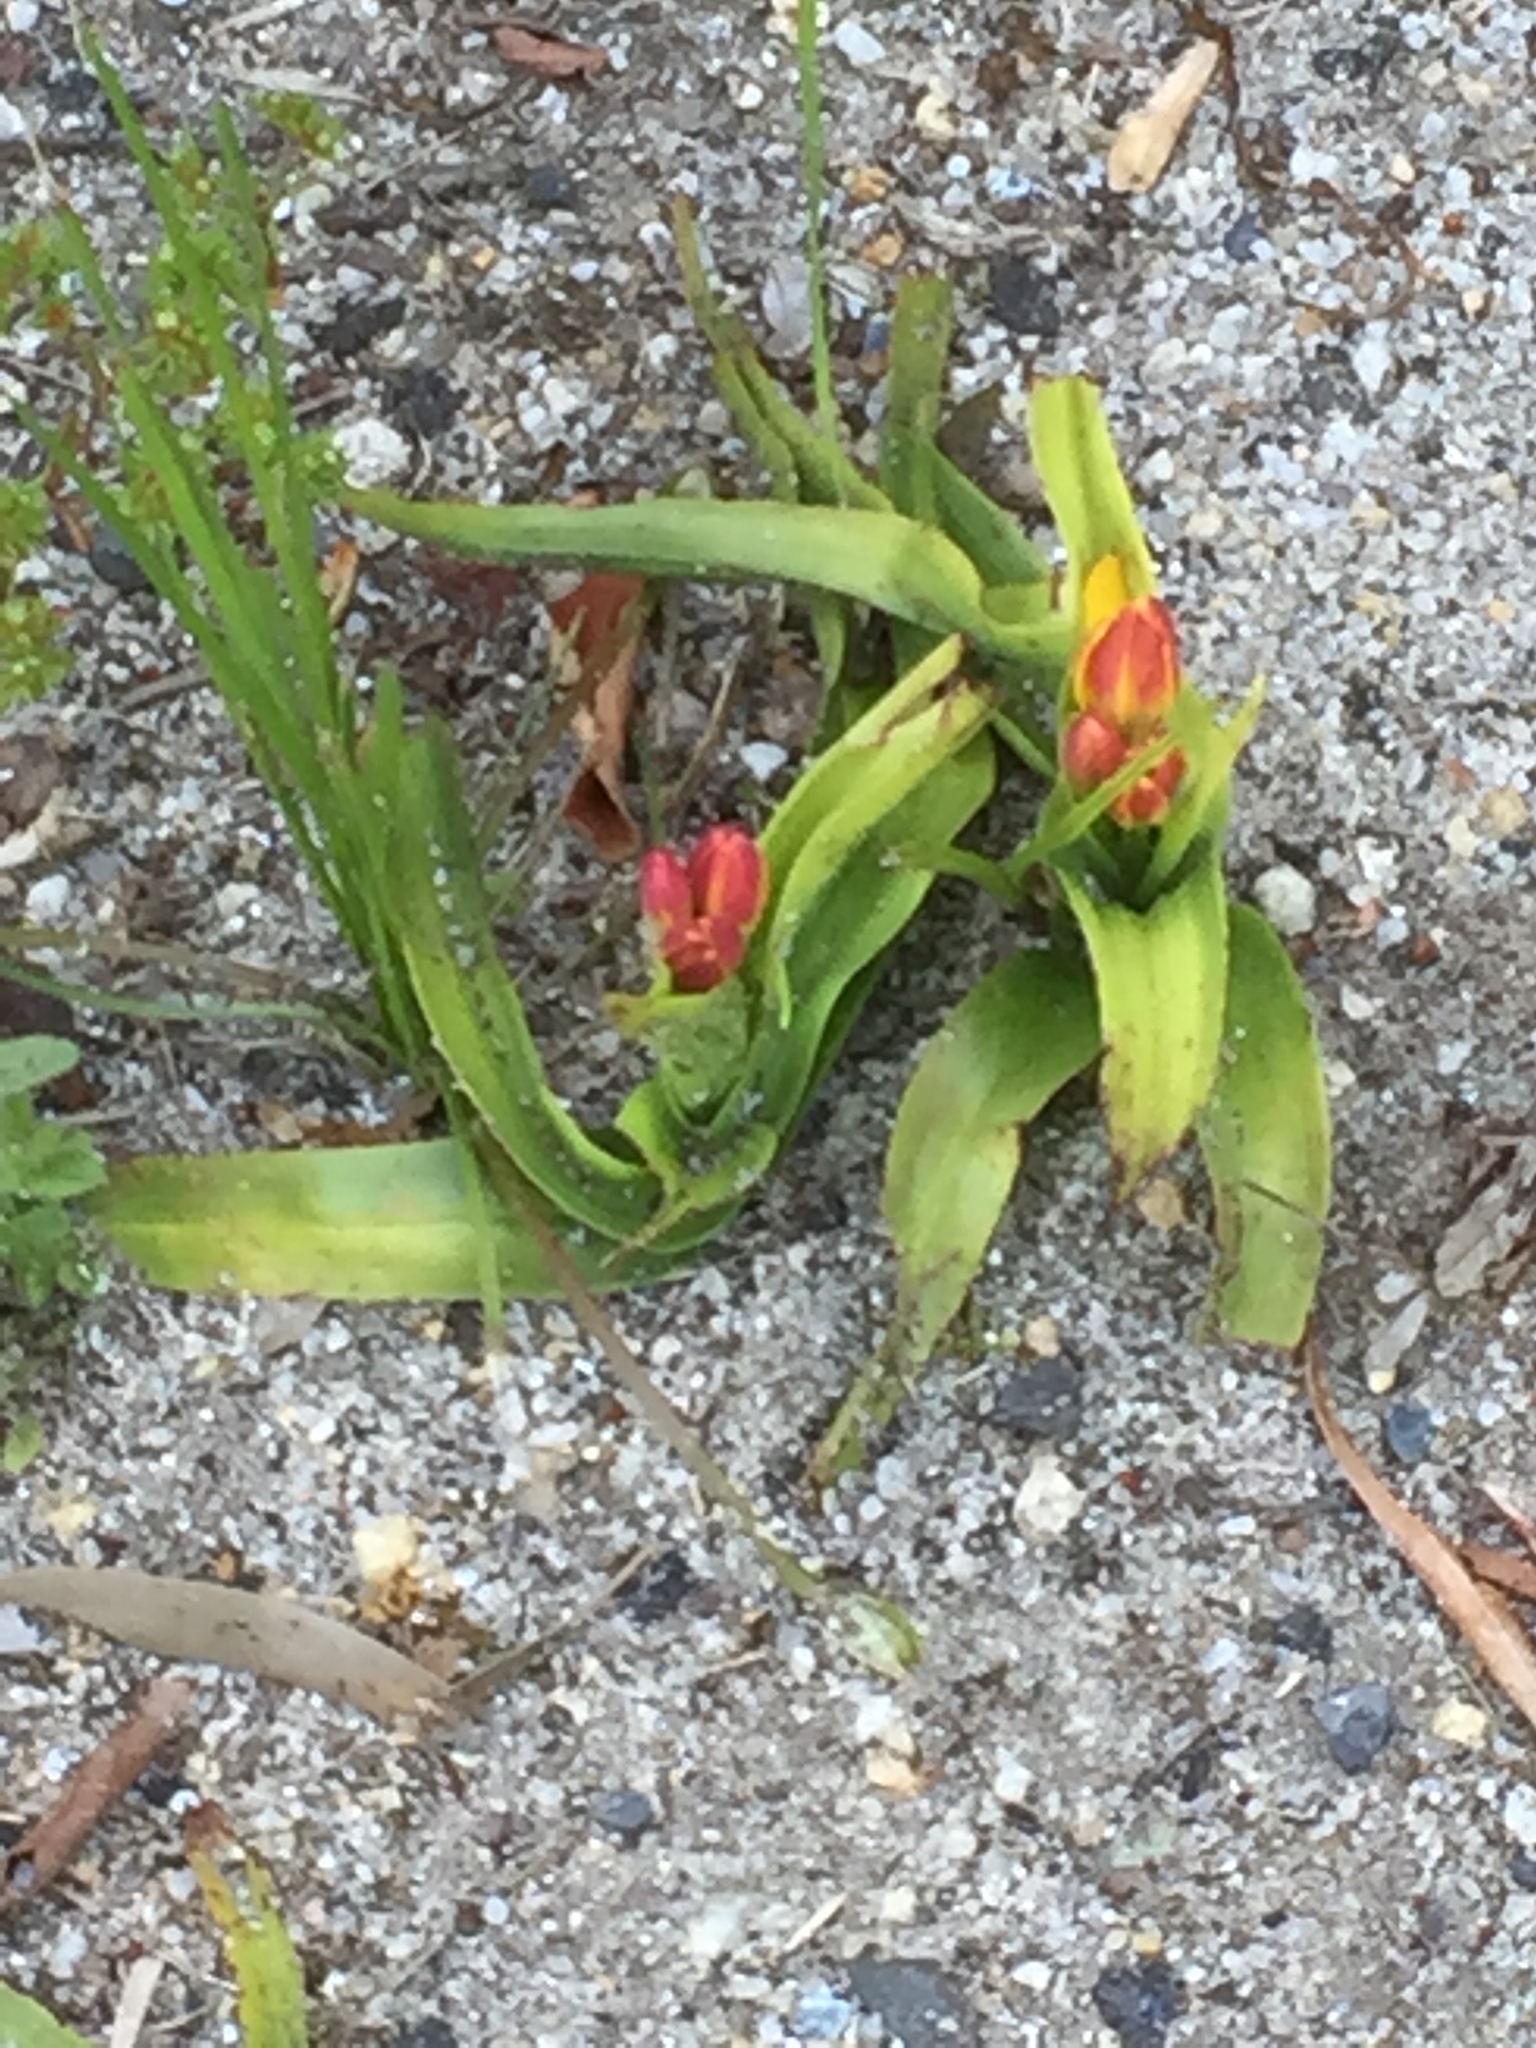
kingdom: Plantae
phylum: Tracheophyta
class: Liliopsida
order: Liliales
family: Colchicaceae
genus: Baeometra
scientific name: Baeometra uniflora
